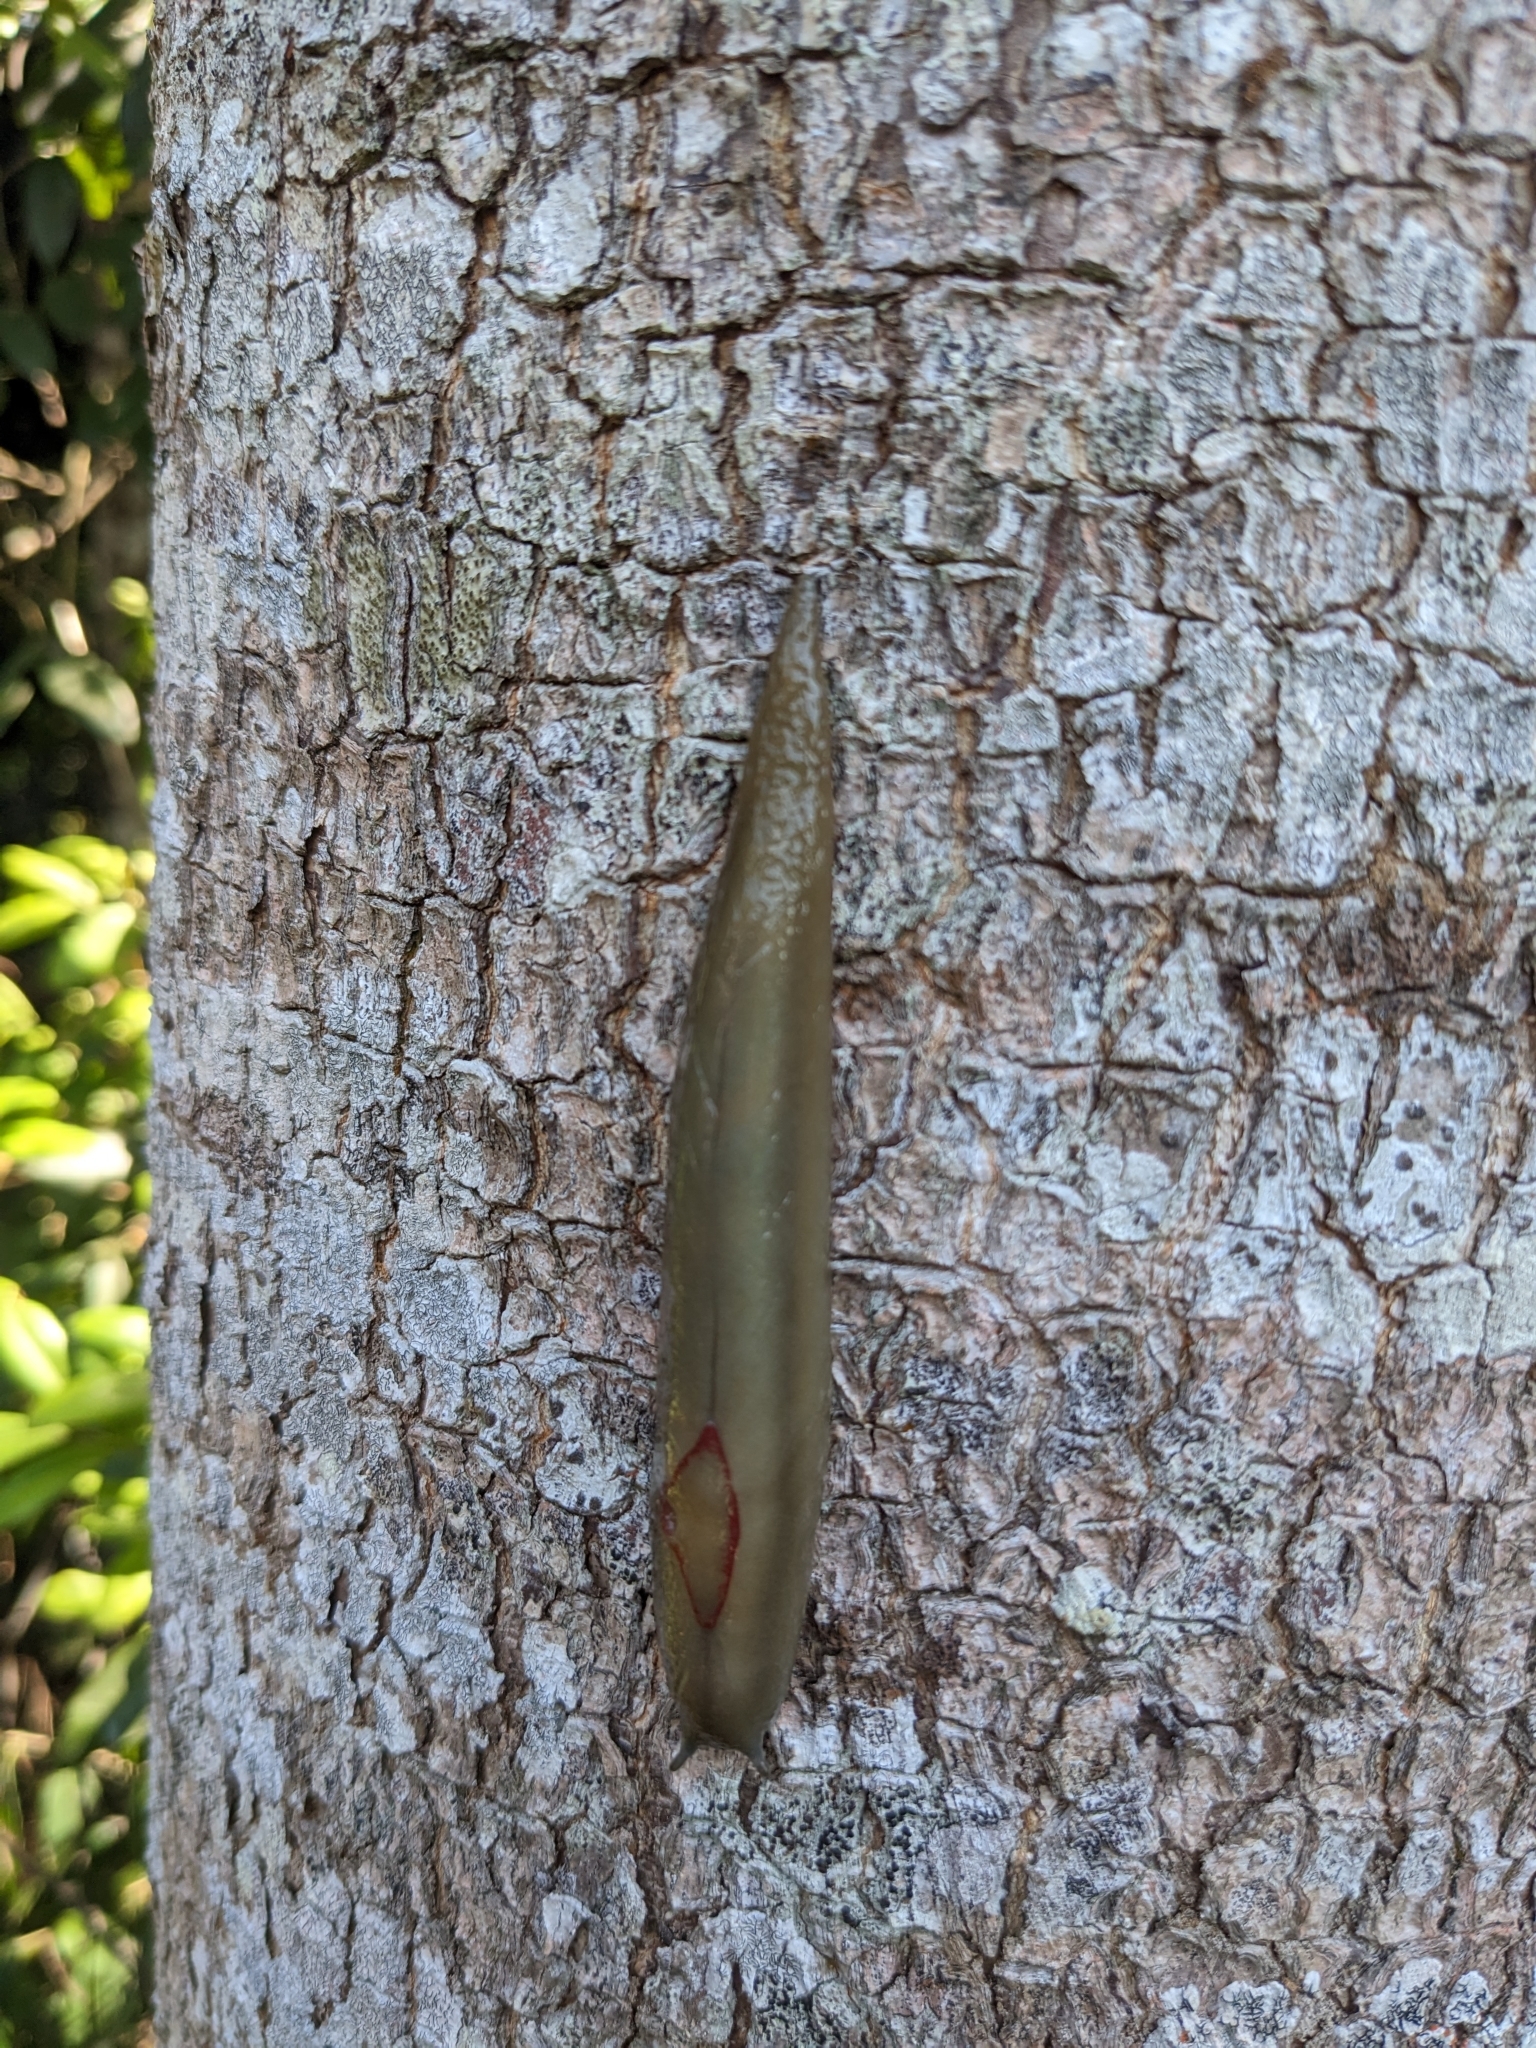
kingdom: Animalia
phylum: Mollusca
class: Gastropoda
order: Stylommatophora
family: Athoracophoridae
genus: Triboniophorus
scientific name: Triboniophorus graeffei
